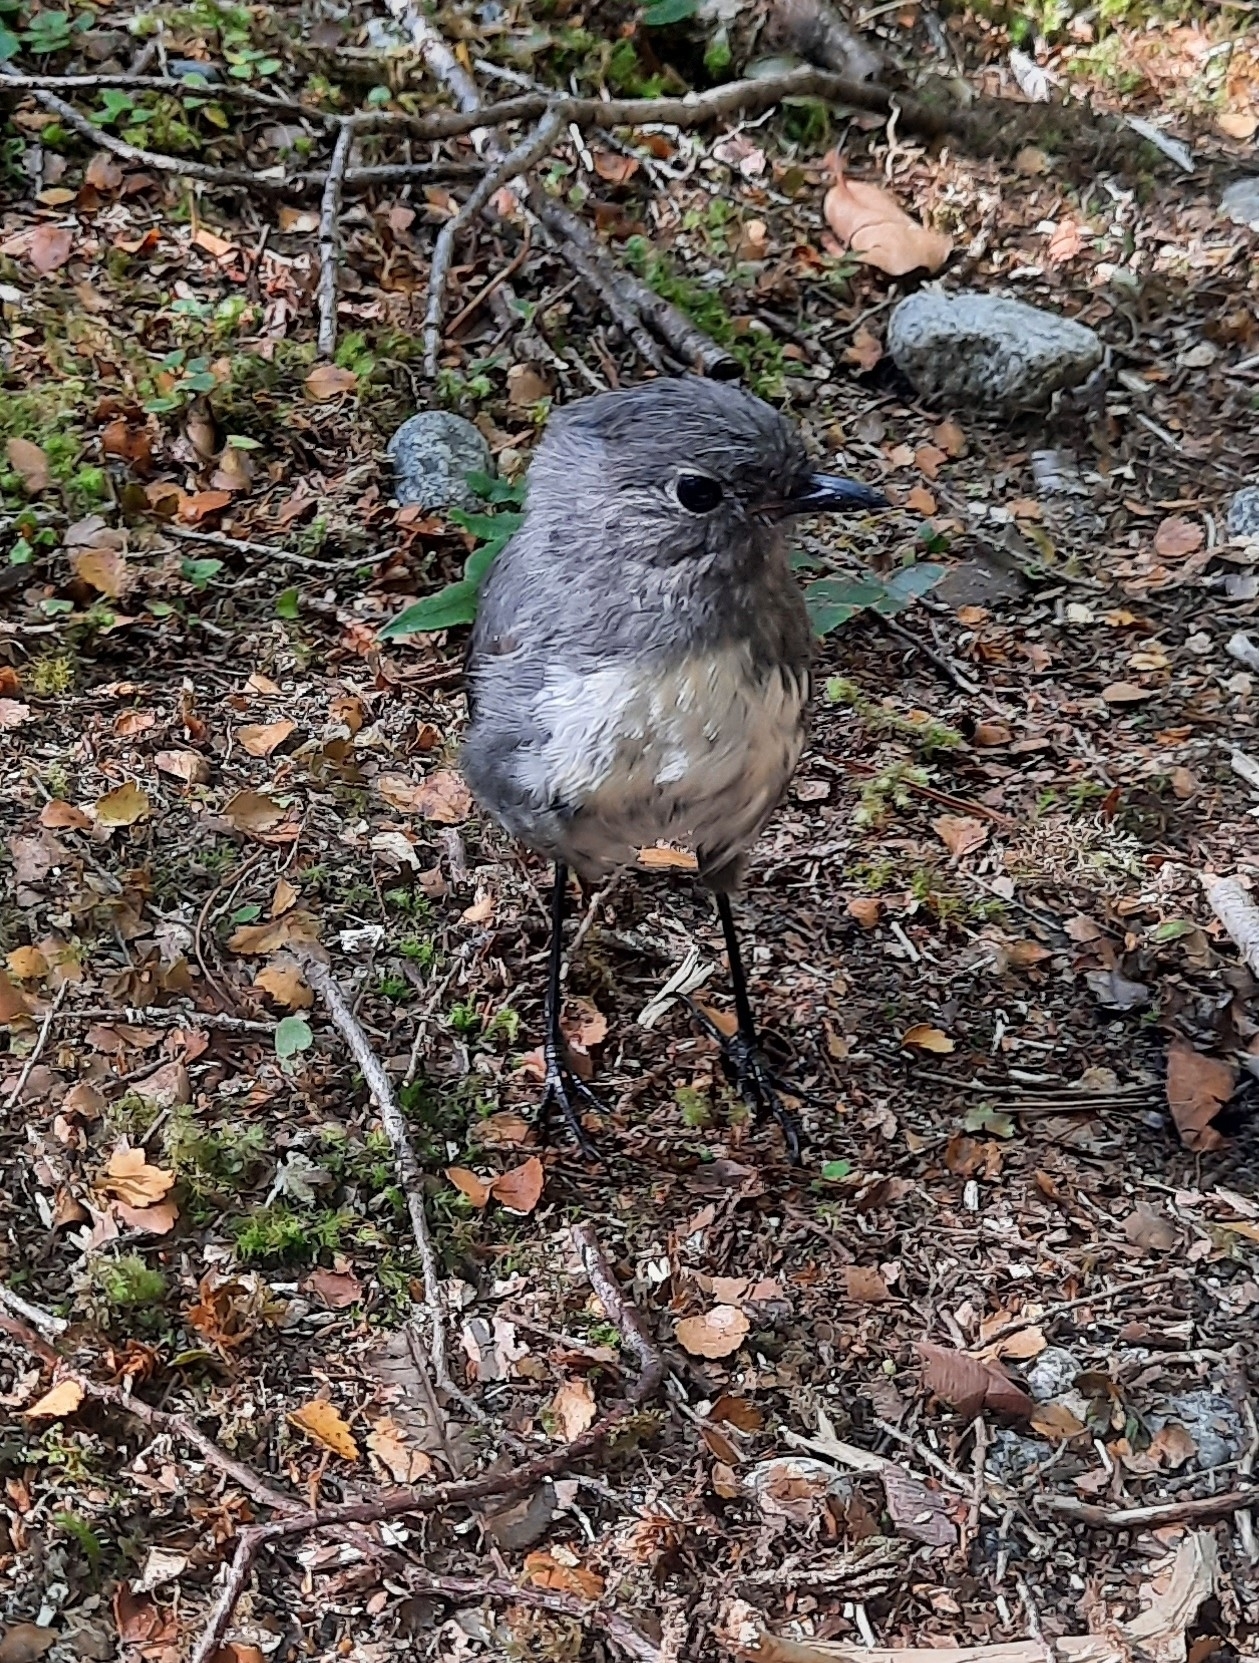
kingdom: Animalia
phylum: Chordata
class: Aves
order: Passeriformes
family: Petroicidae
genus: Petroica
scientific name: Petroica australis
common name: New zealand robin
